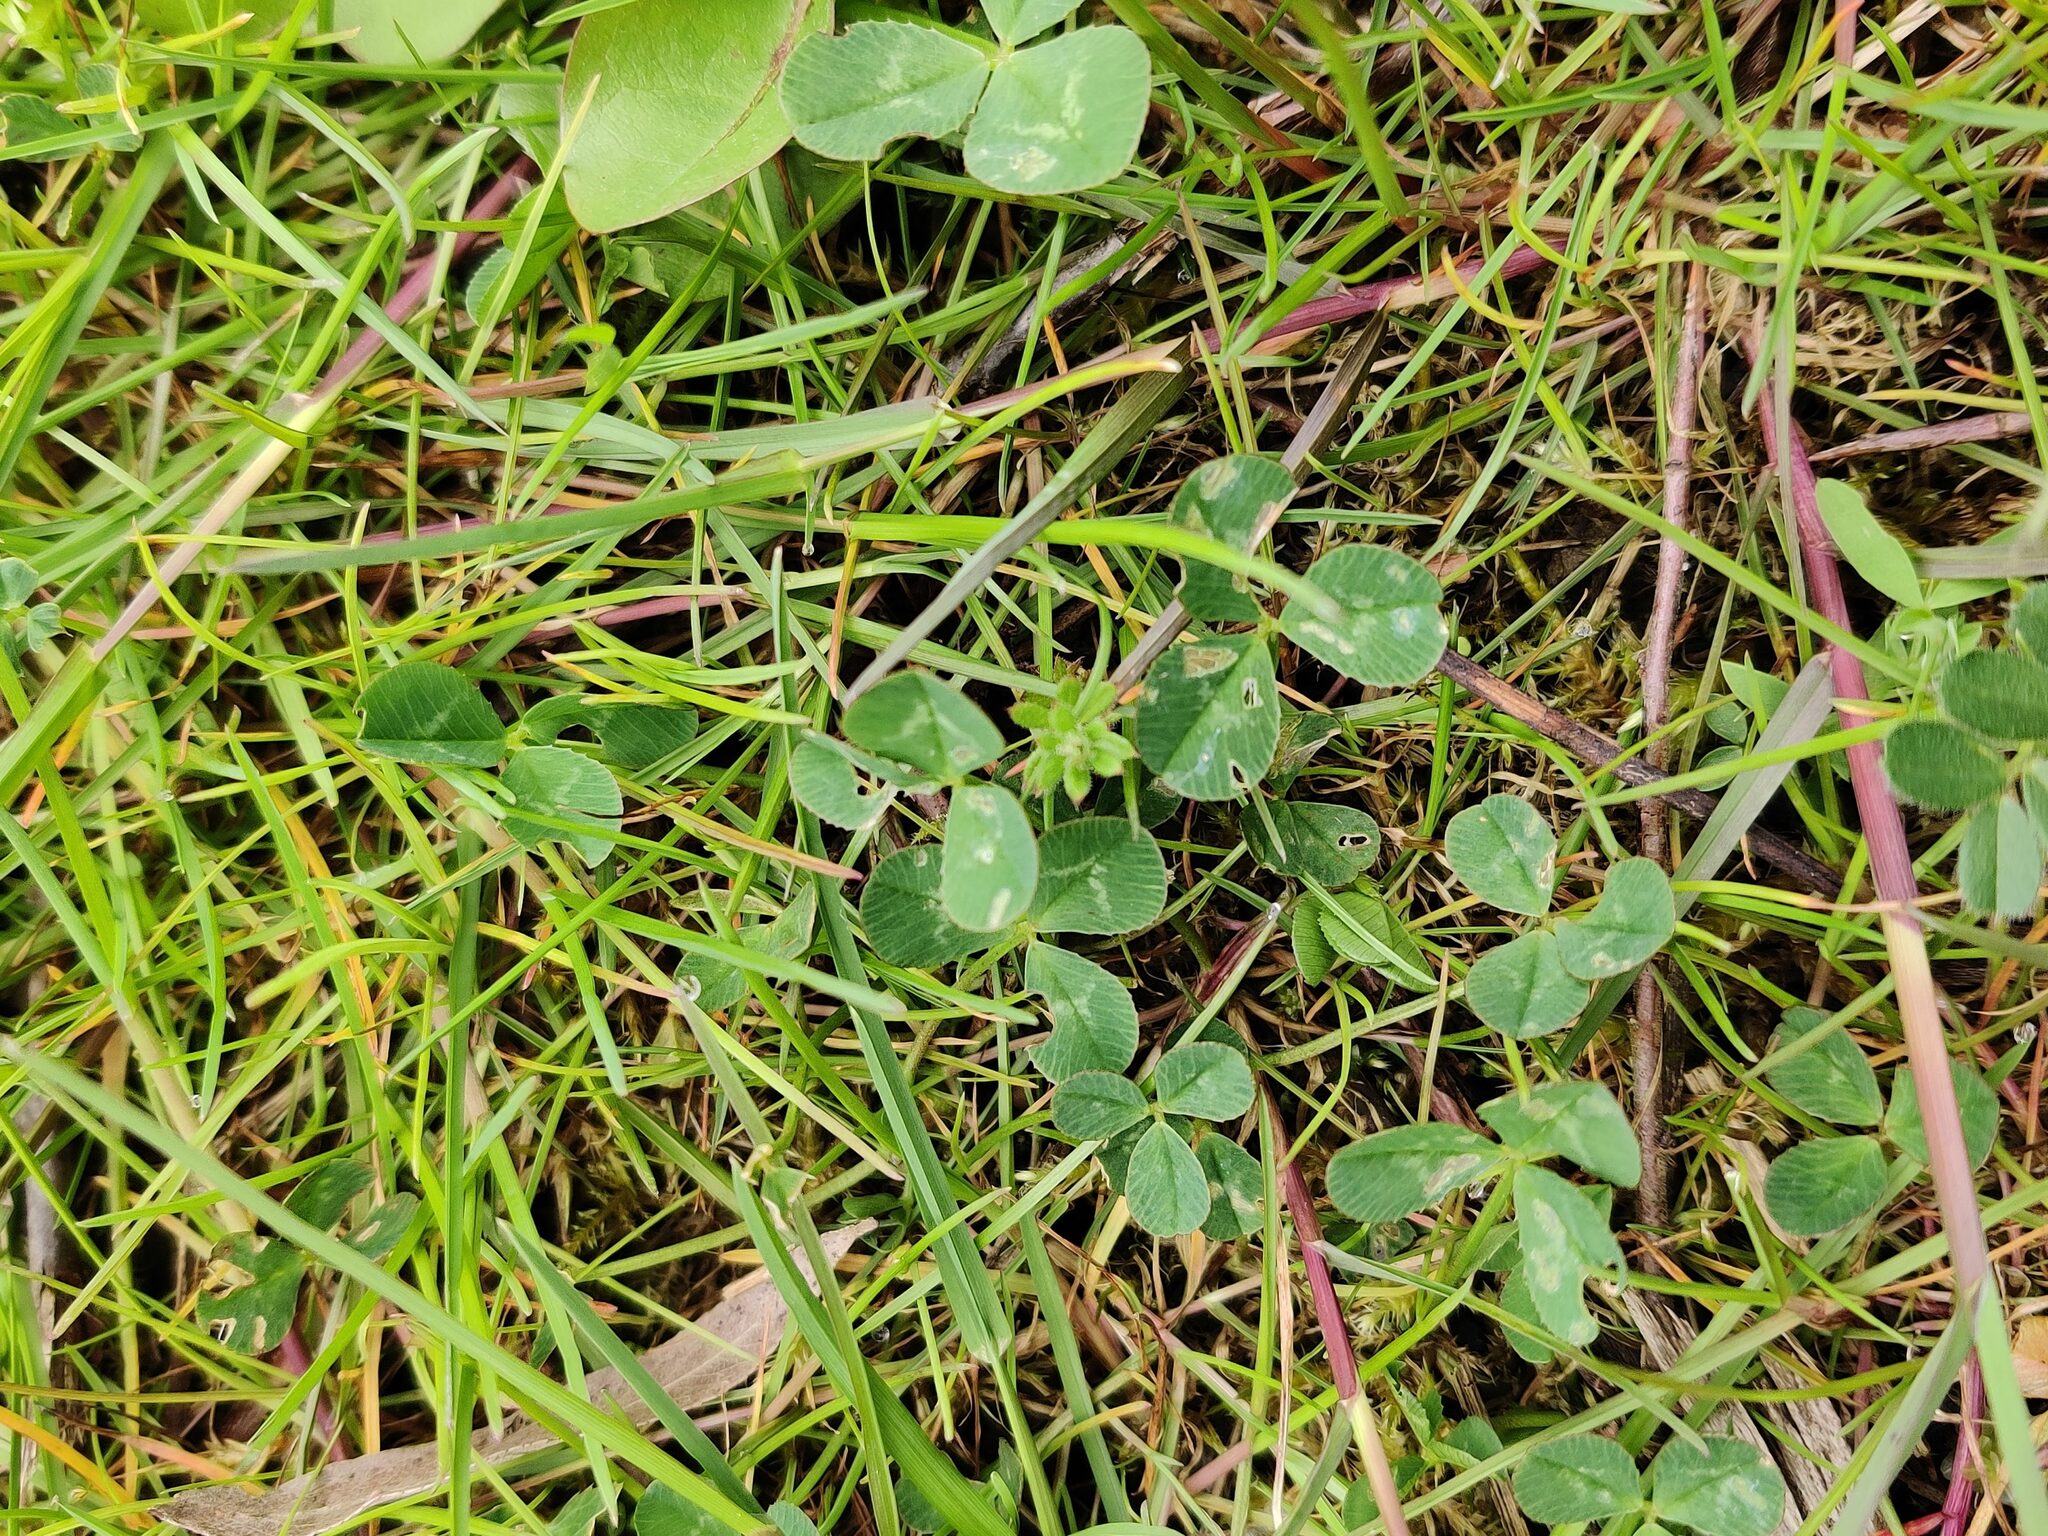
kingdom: Plantae
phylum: Tracheophyta
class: Magnoliopsida
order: Fabales
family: Fabaceae
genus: Trifolium
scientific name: Trifolium repens
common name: White clover
